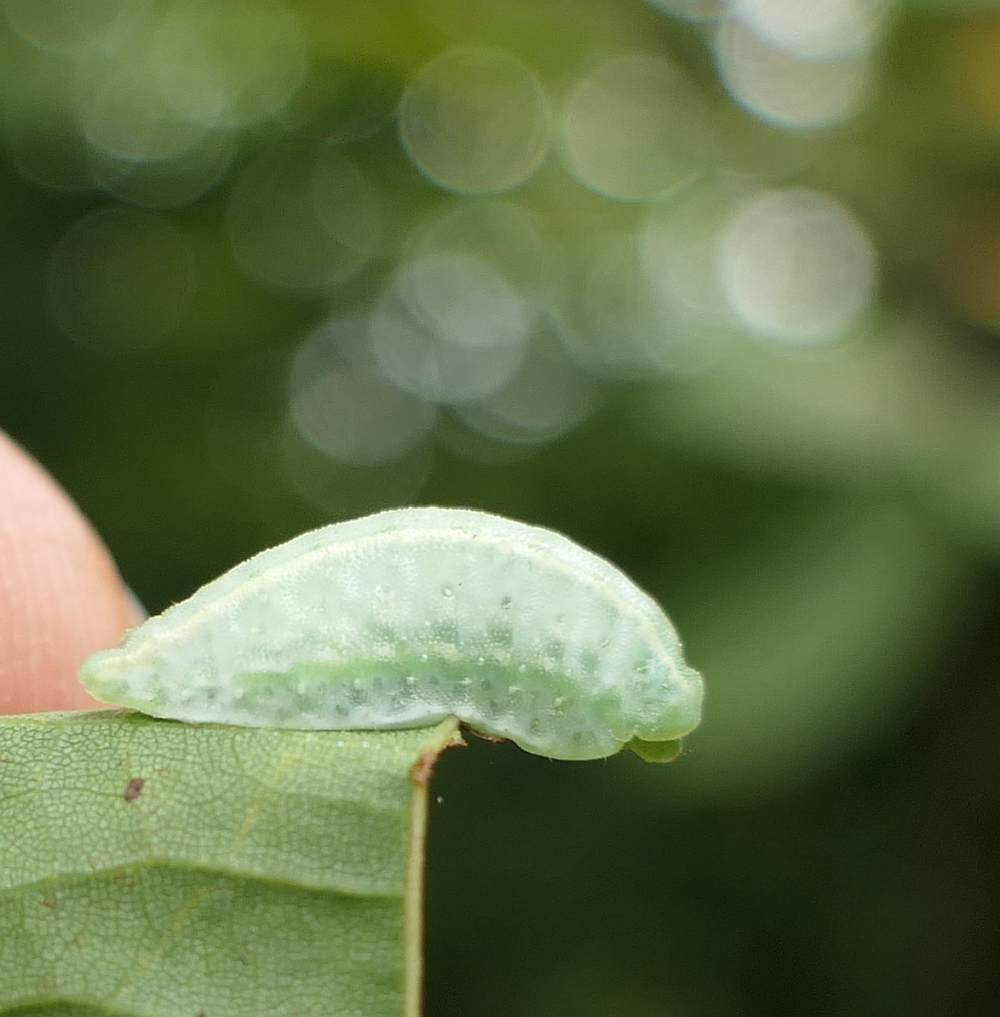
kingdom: Animalia
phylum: Arthropoda
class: Insecta
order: Lepidoptera
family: Limacodidae
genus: Packardia
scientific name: Packardia geminata
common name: Jeweled tailed slug moth
